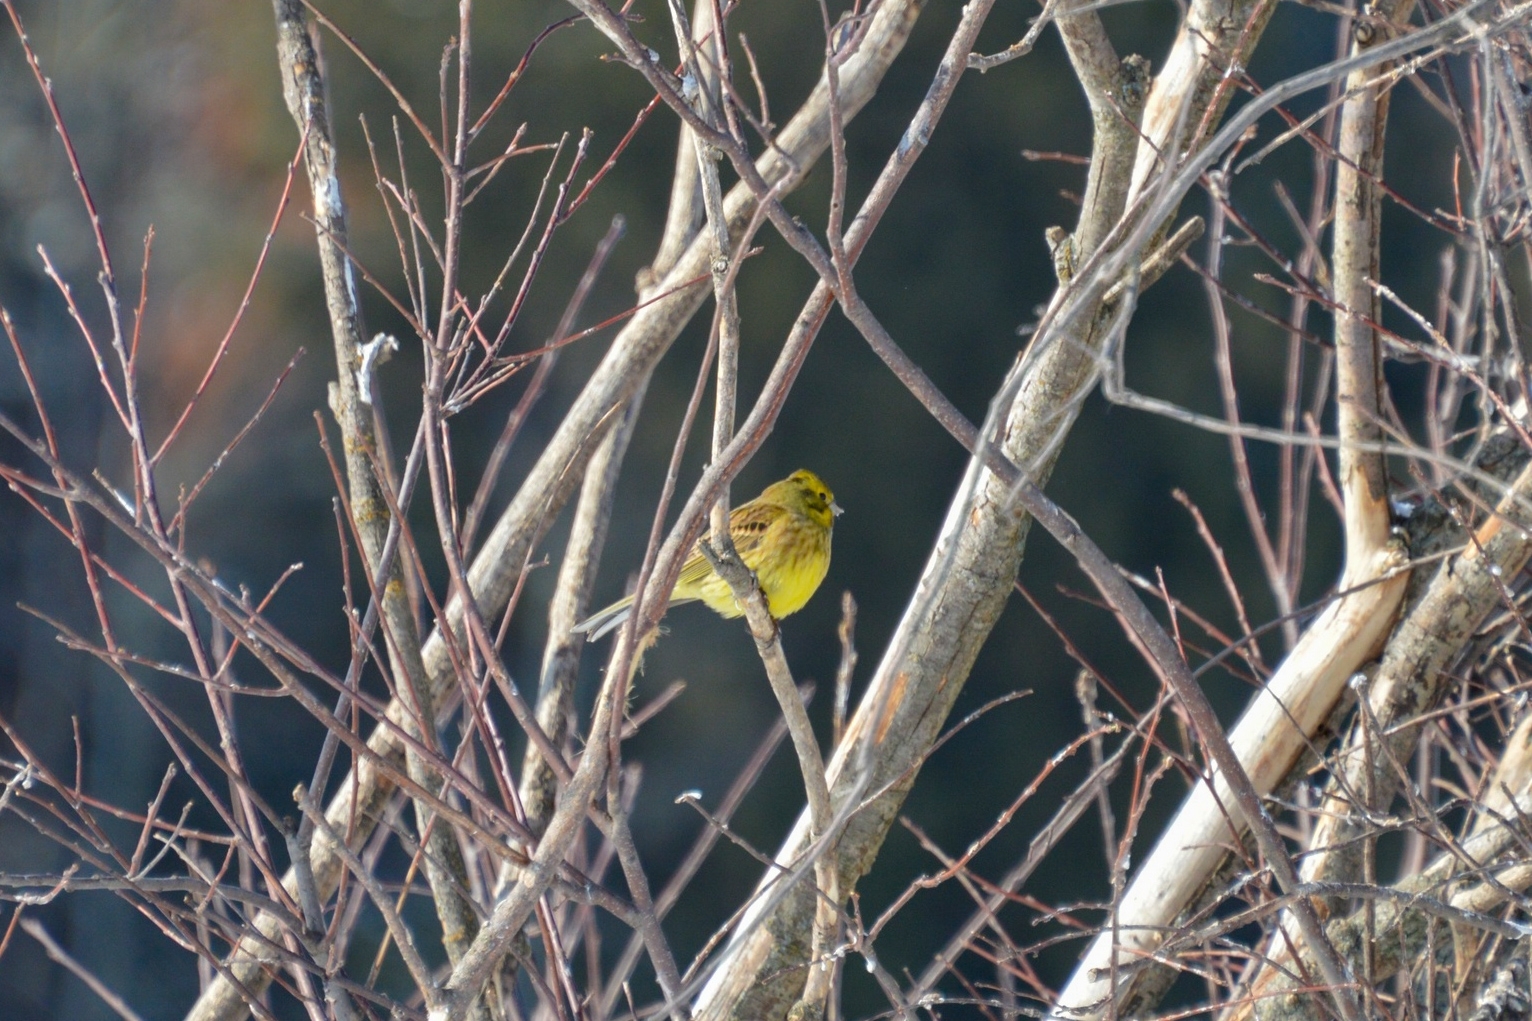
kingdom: Animalia
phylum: Chordata
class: Aves
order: Passeriformes
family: Emberizidae
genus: Emberiza
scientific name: Emberiza citrinella
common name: Yellowhammer
